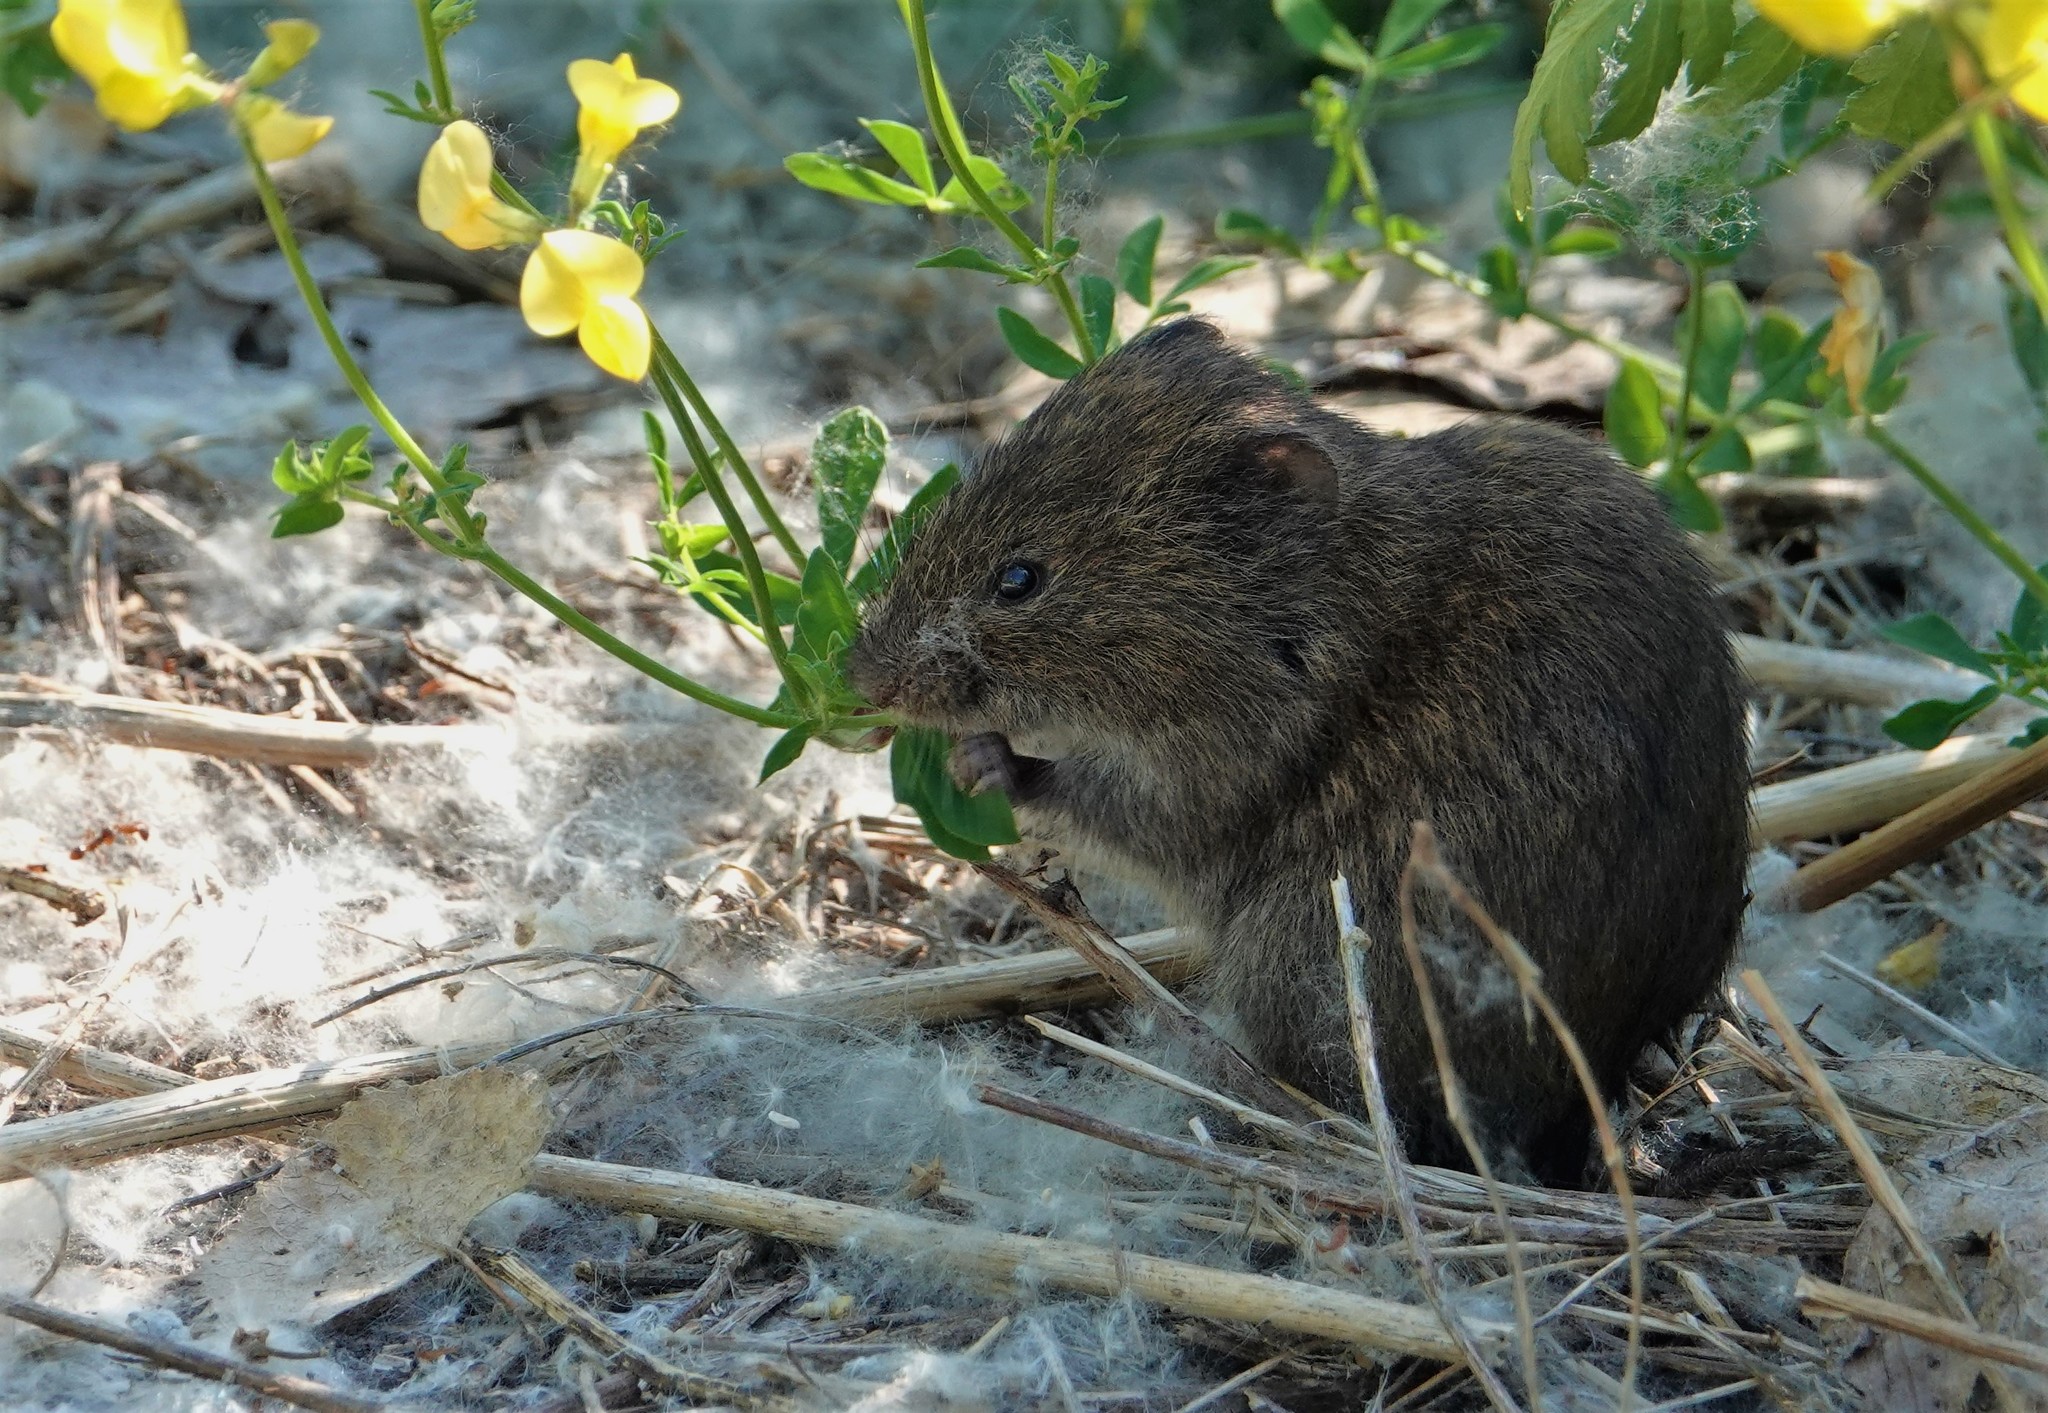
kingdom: Animalia
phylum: Chordata
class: Mammalia
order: Rodentia
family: Cricetidae
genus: Microtus
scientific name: Microtus pennsylvanicus
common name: Meadow vole
